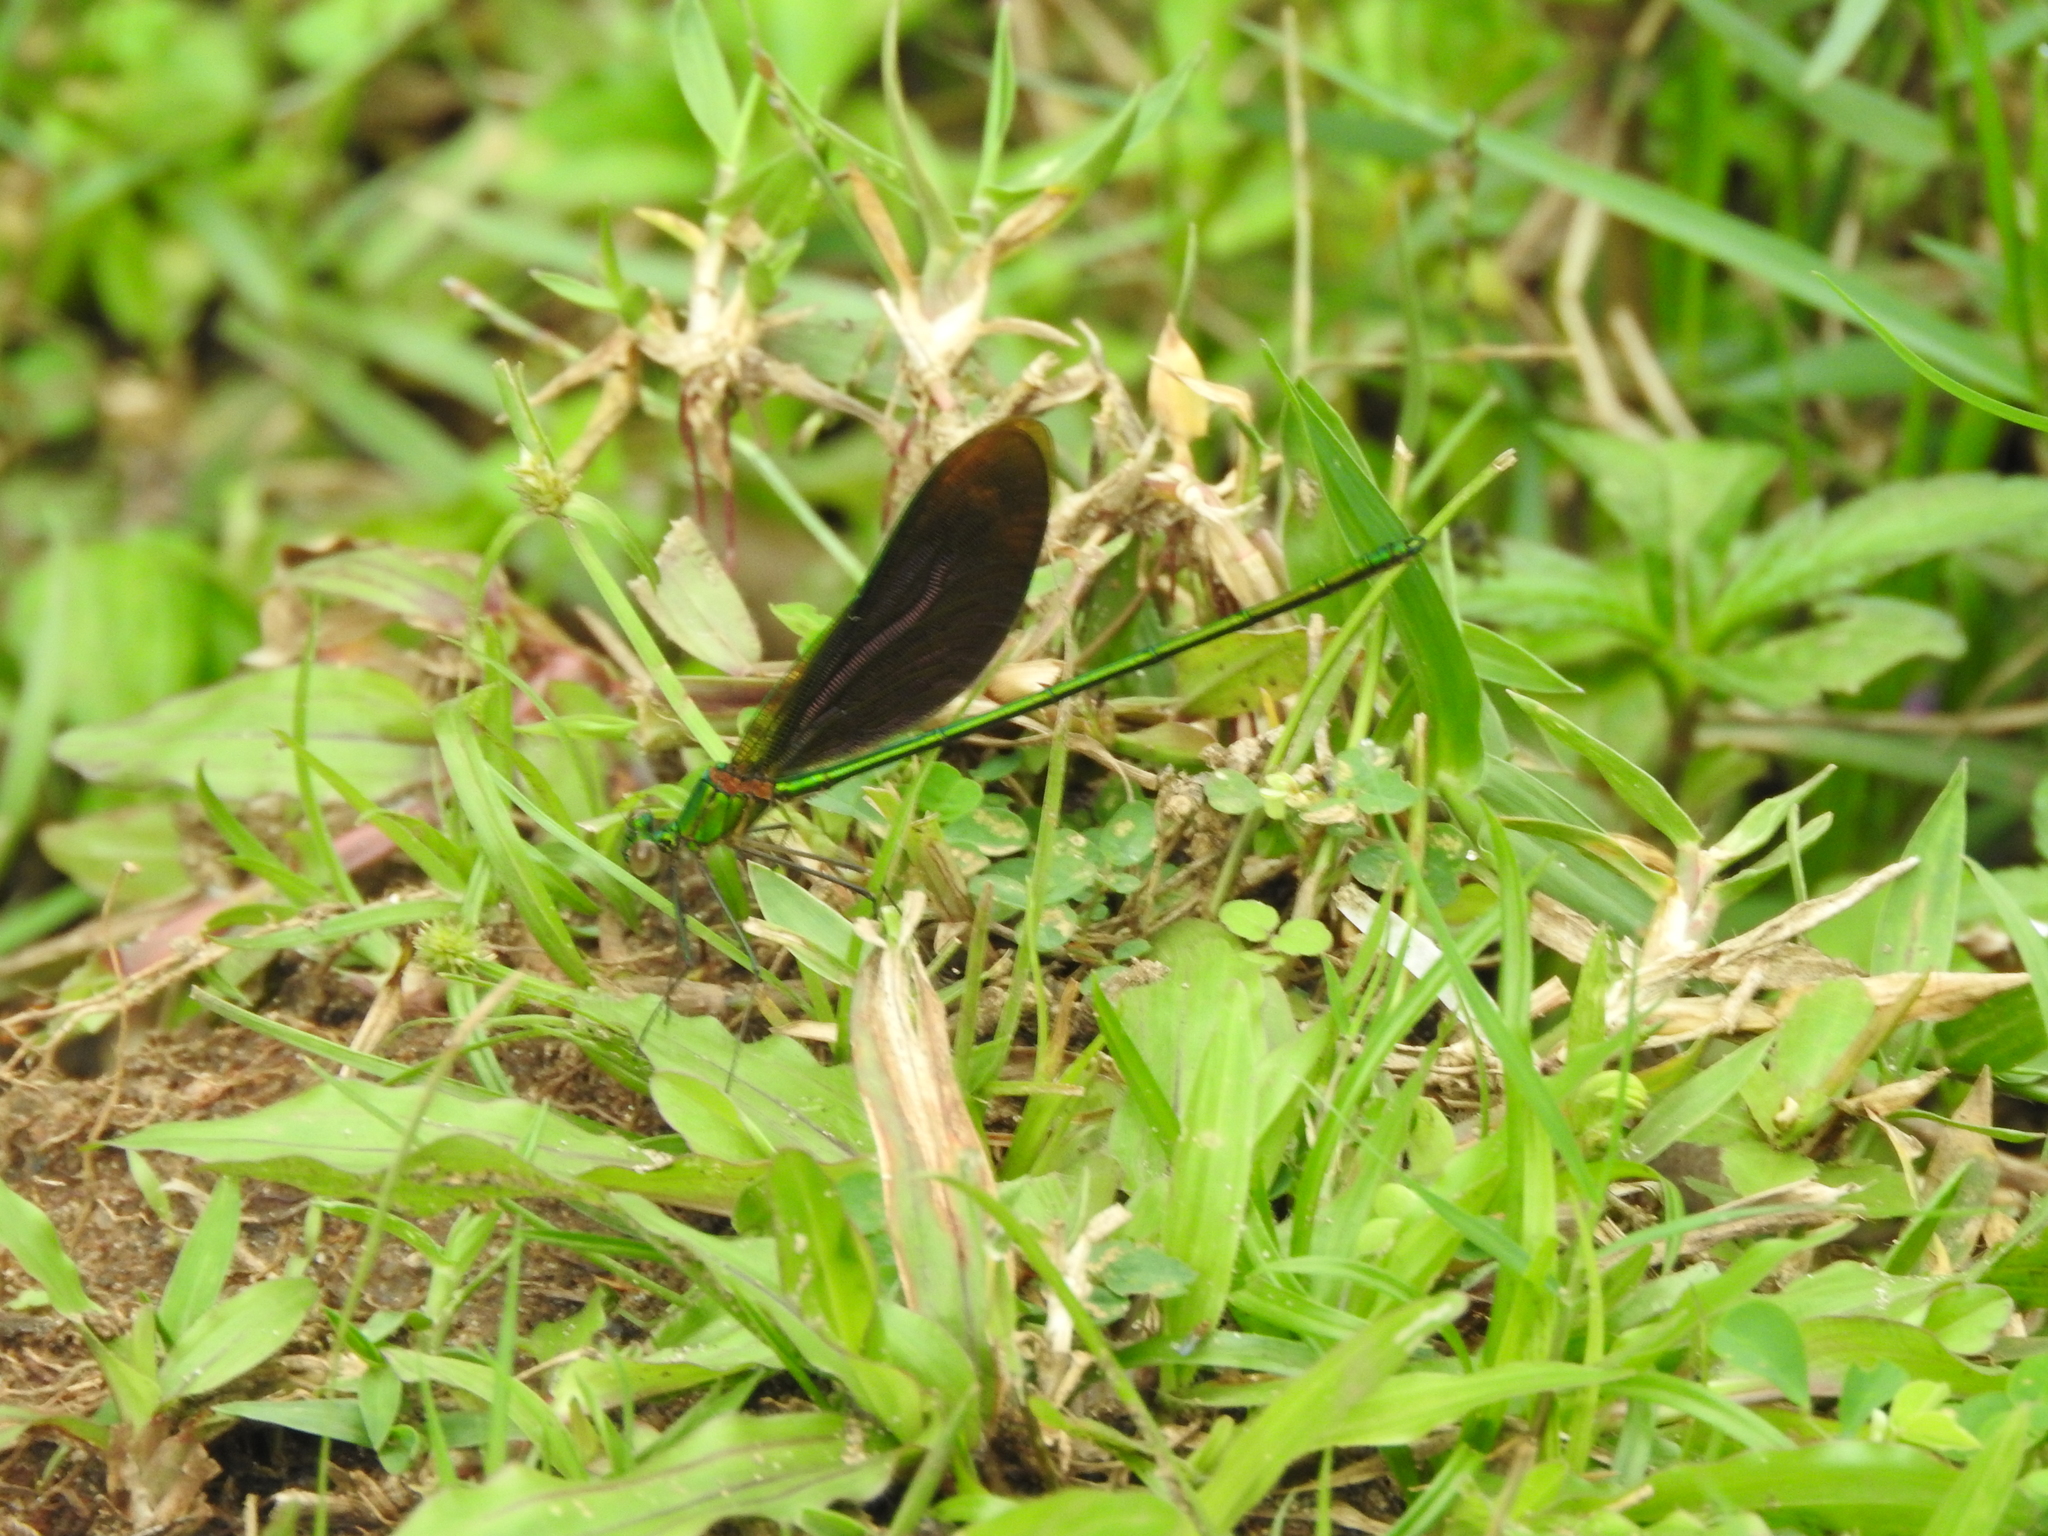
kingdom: Animalia
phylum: Arthropoda
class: Insecta
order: Odonata
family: Calopterygidae
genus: Neurobasis
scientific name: Neurobasis chinensis
